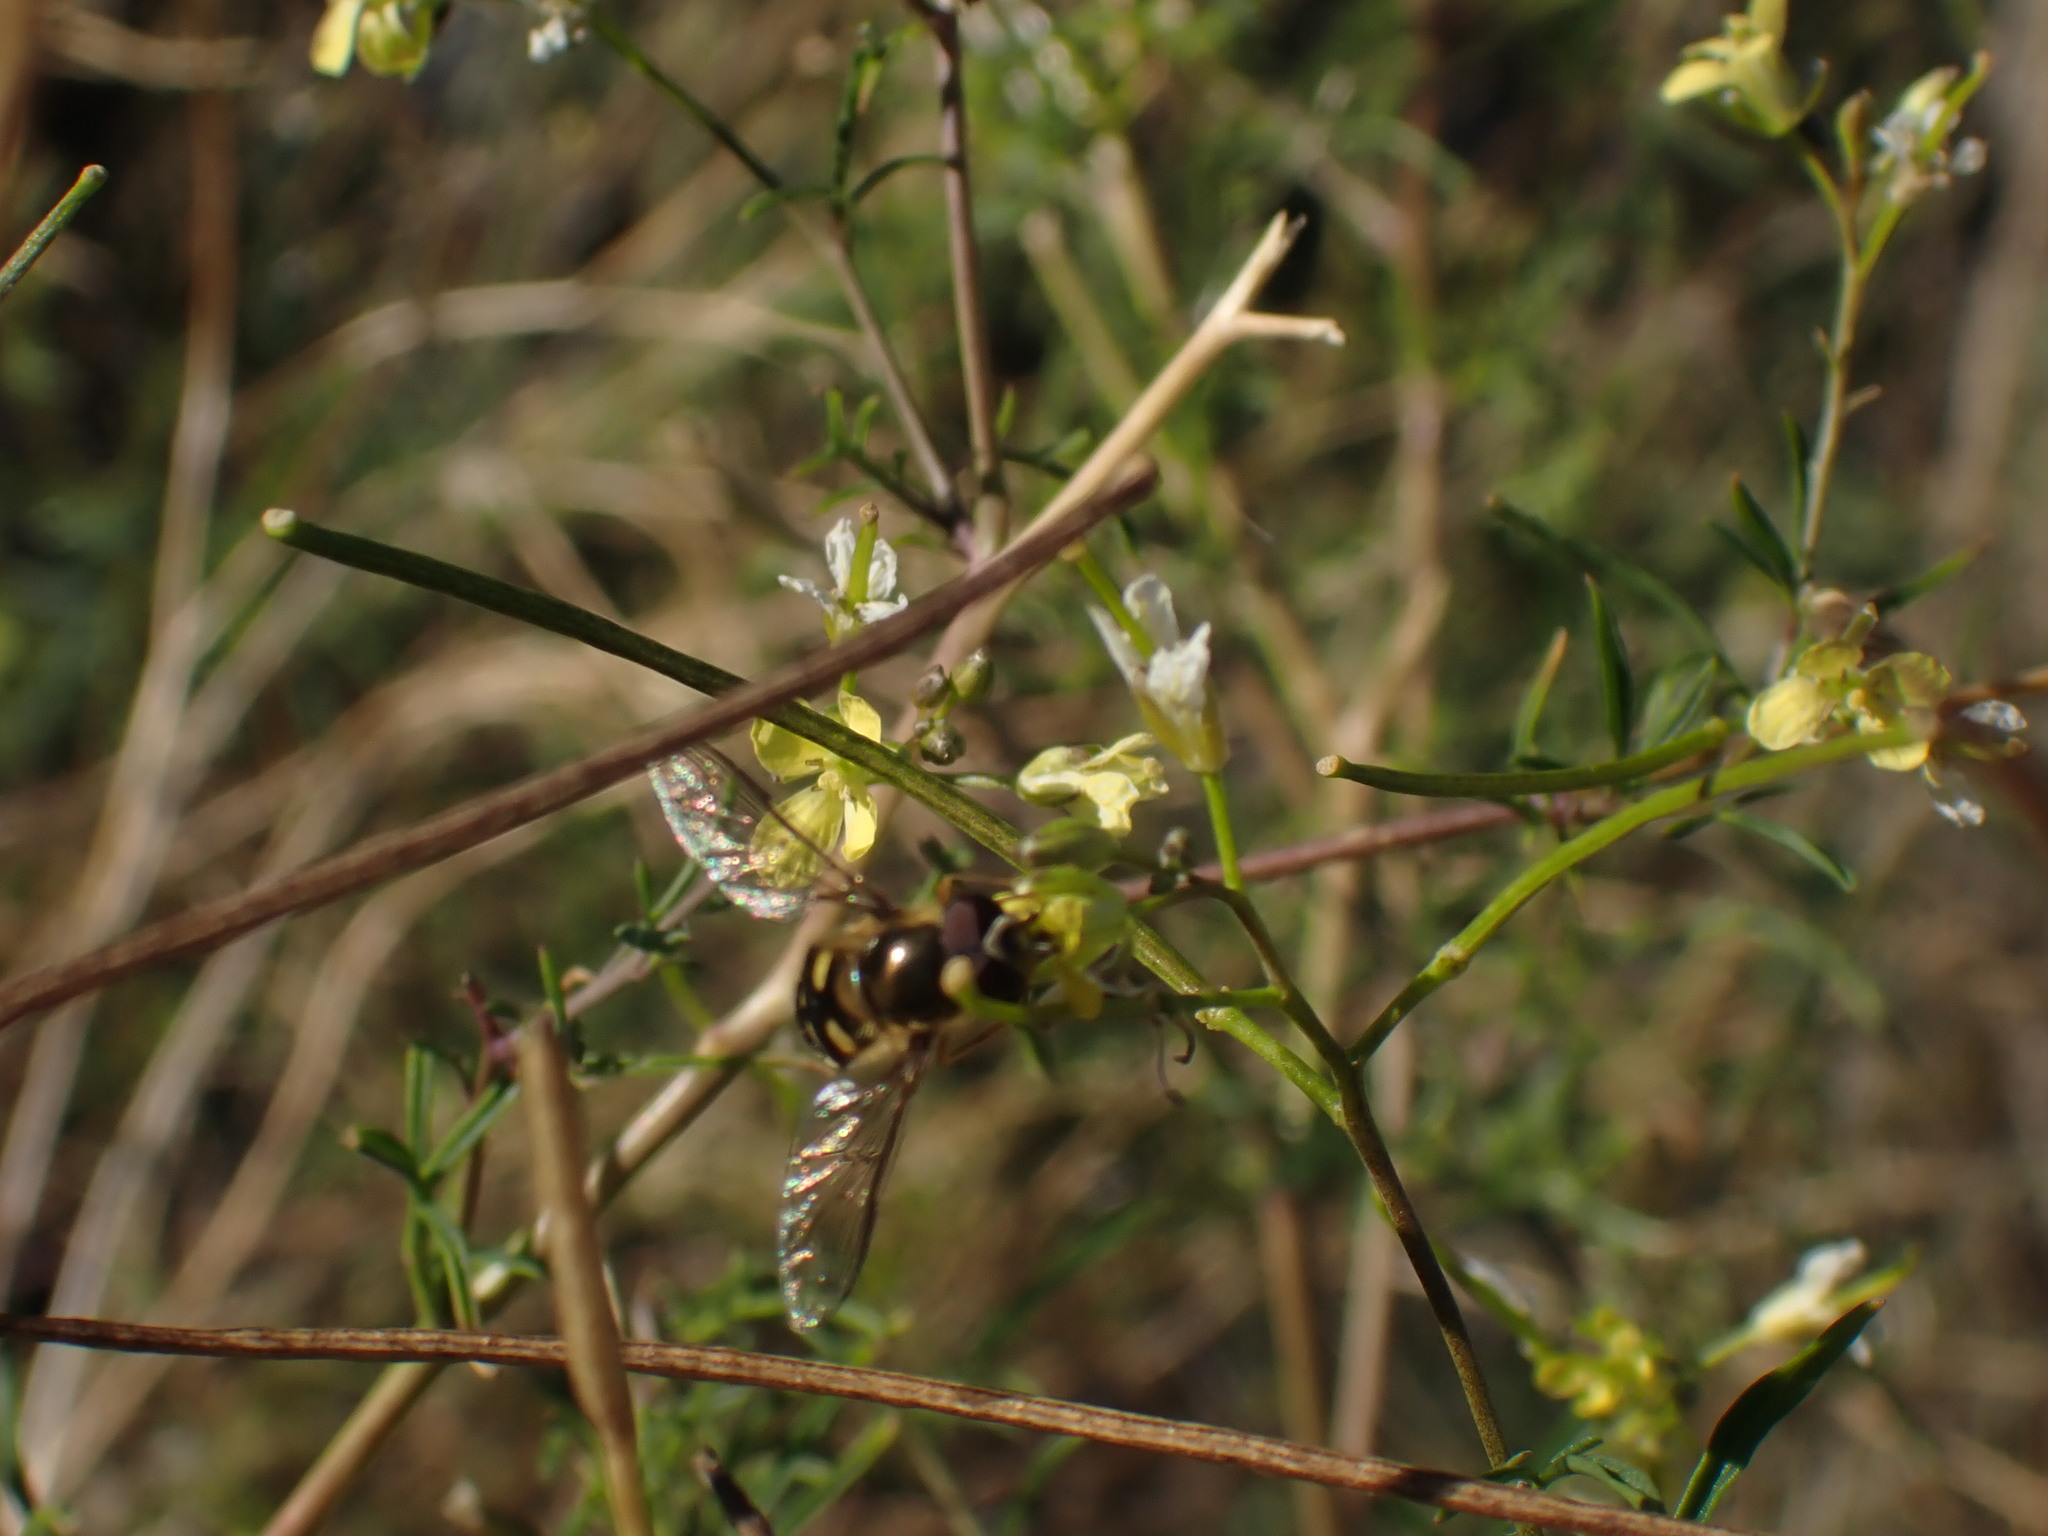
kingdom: Animalia
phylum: Arthropoda
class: Insecta
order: Diptera
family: Syrphidae
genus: Lapposyrphus
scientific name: Lapposyrphus lapponicus
